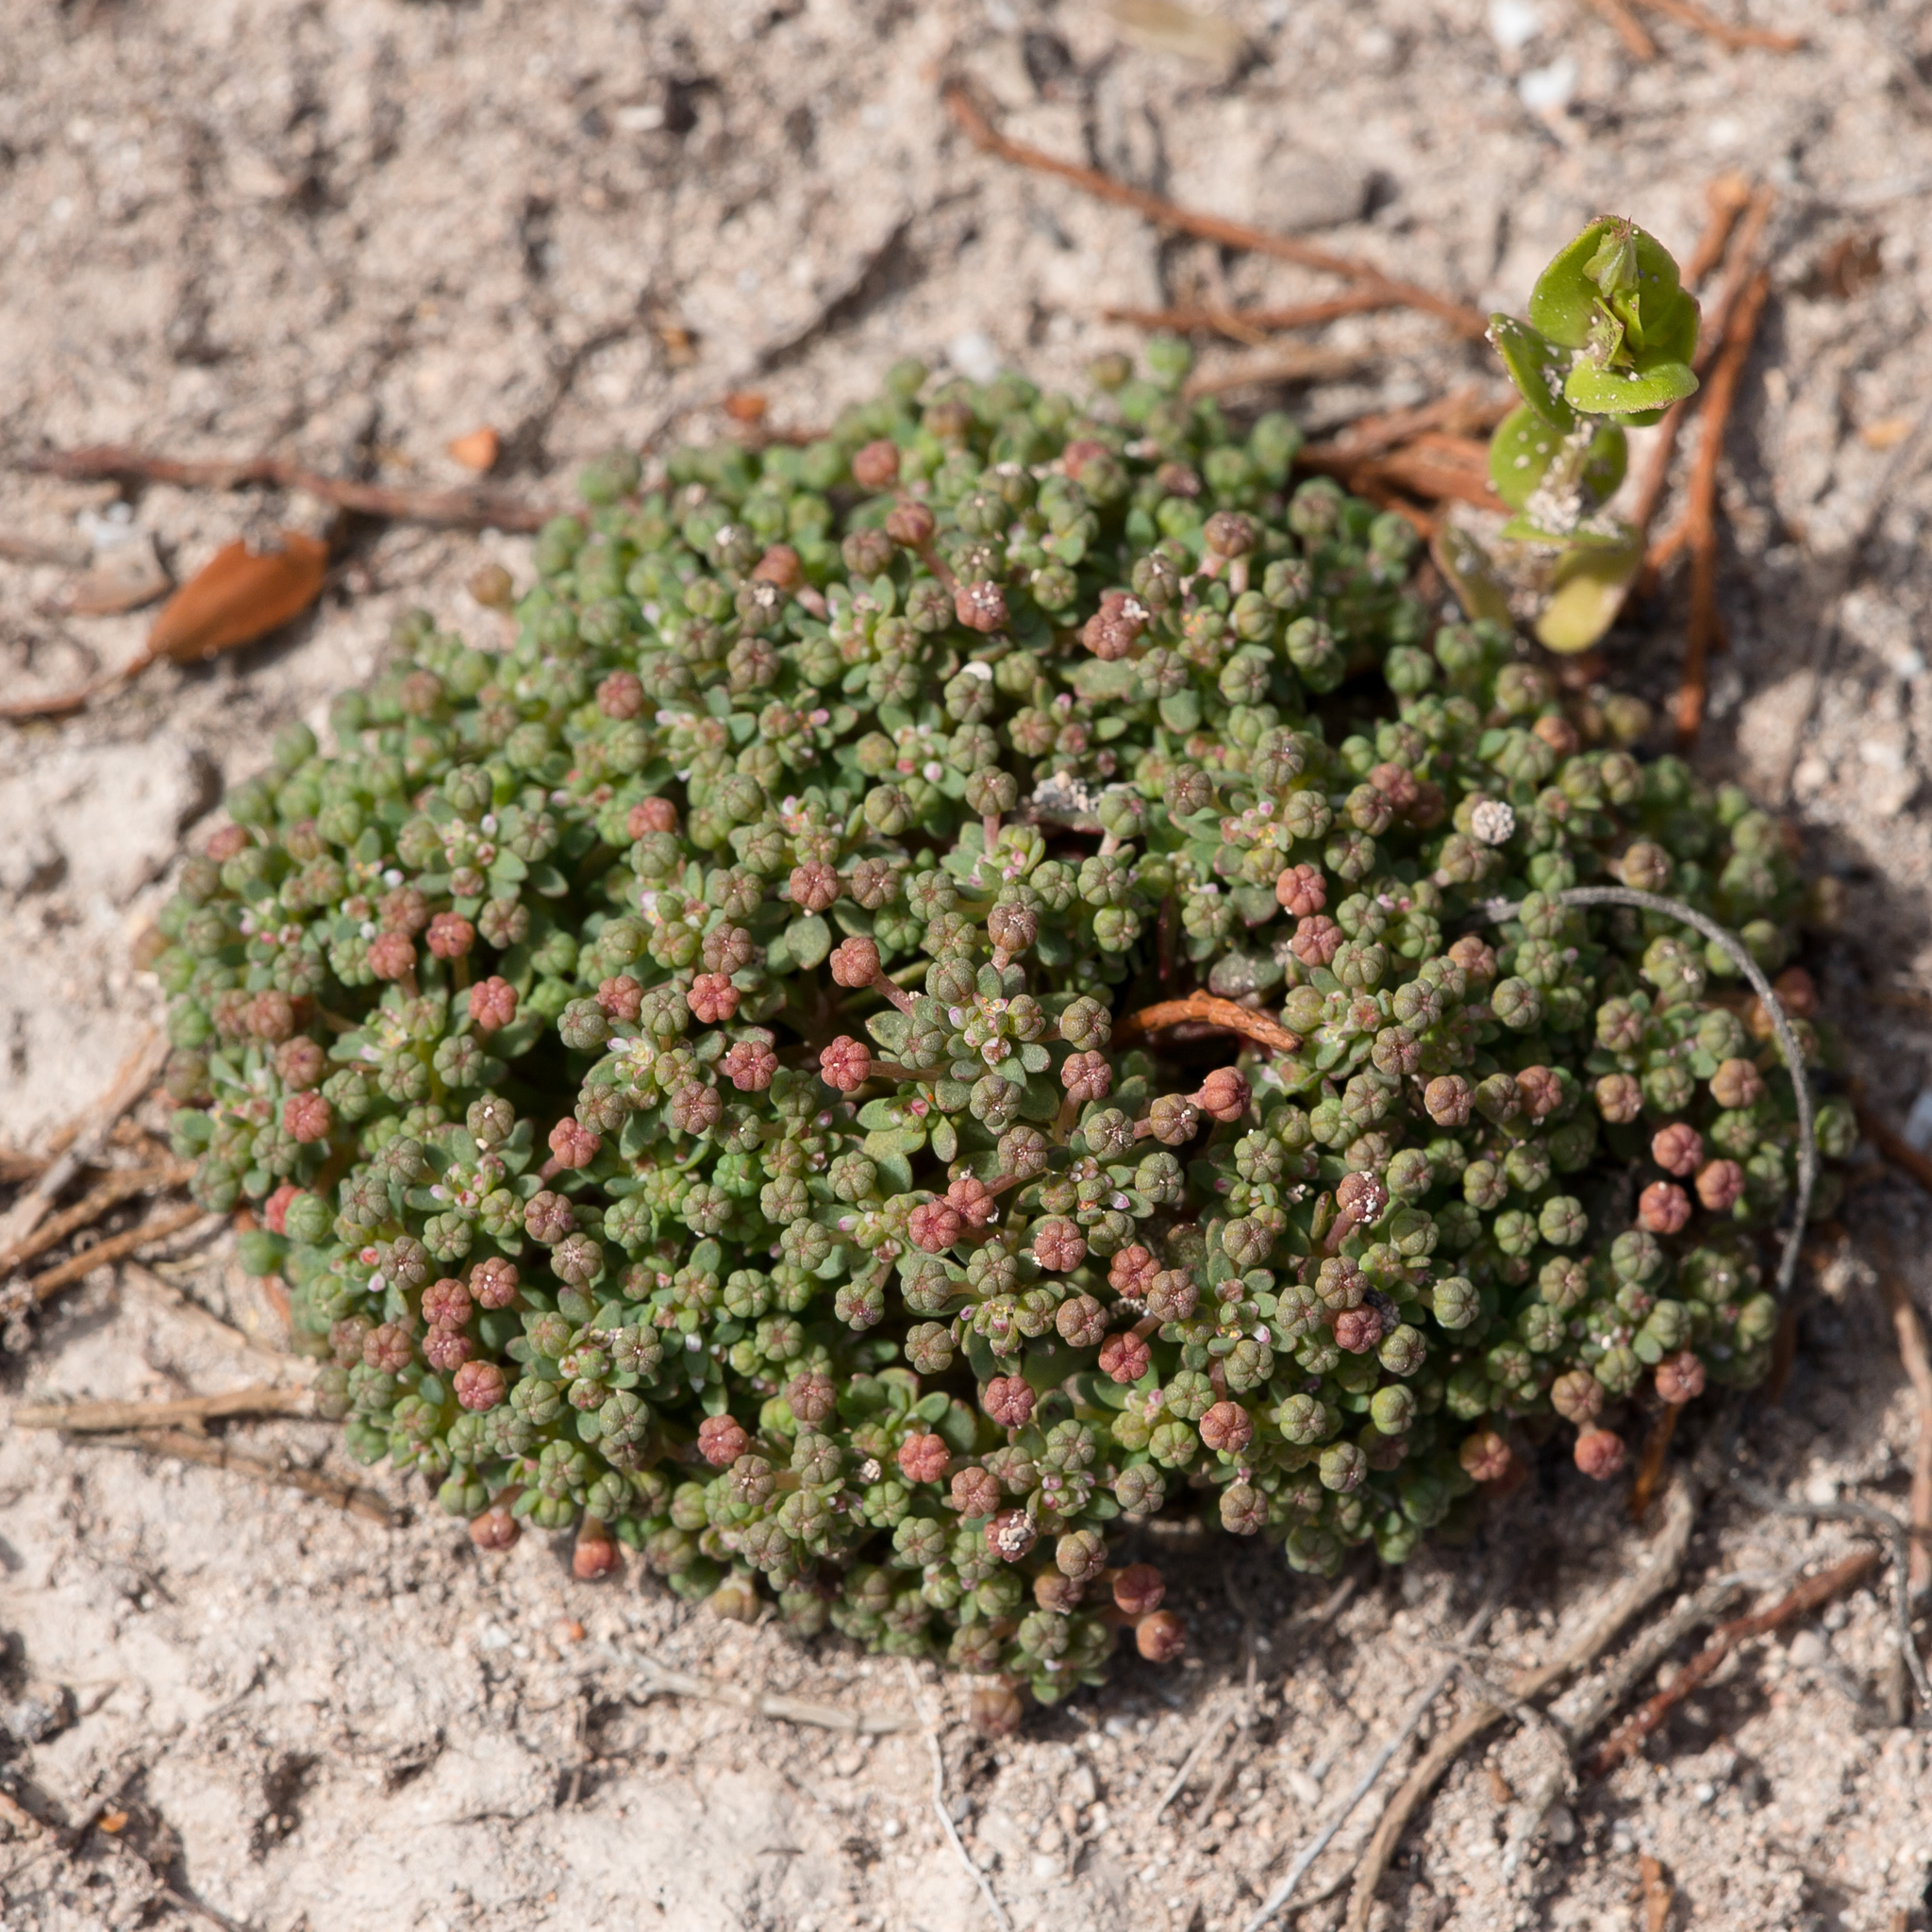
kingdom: Plantae
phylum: Tracheophyta
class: Magnoliopsida
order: Malpighiales
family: Phyllanthaceae
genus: Poranthera
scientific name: Poranthera triandra
